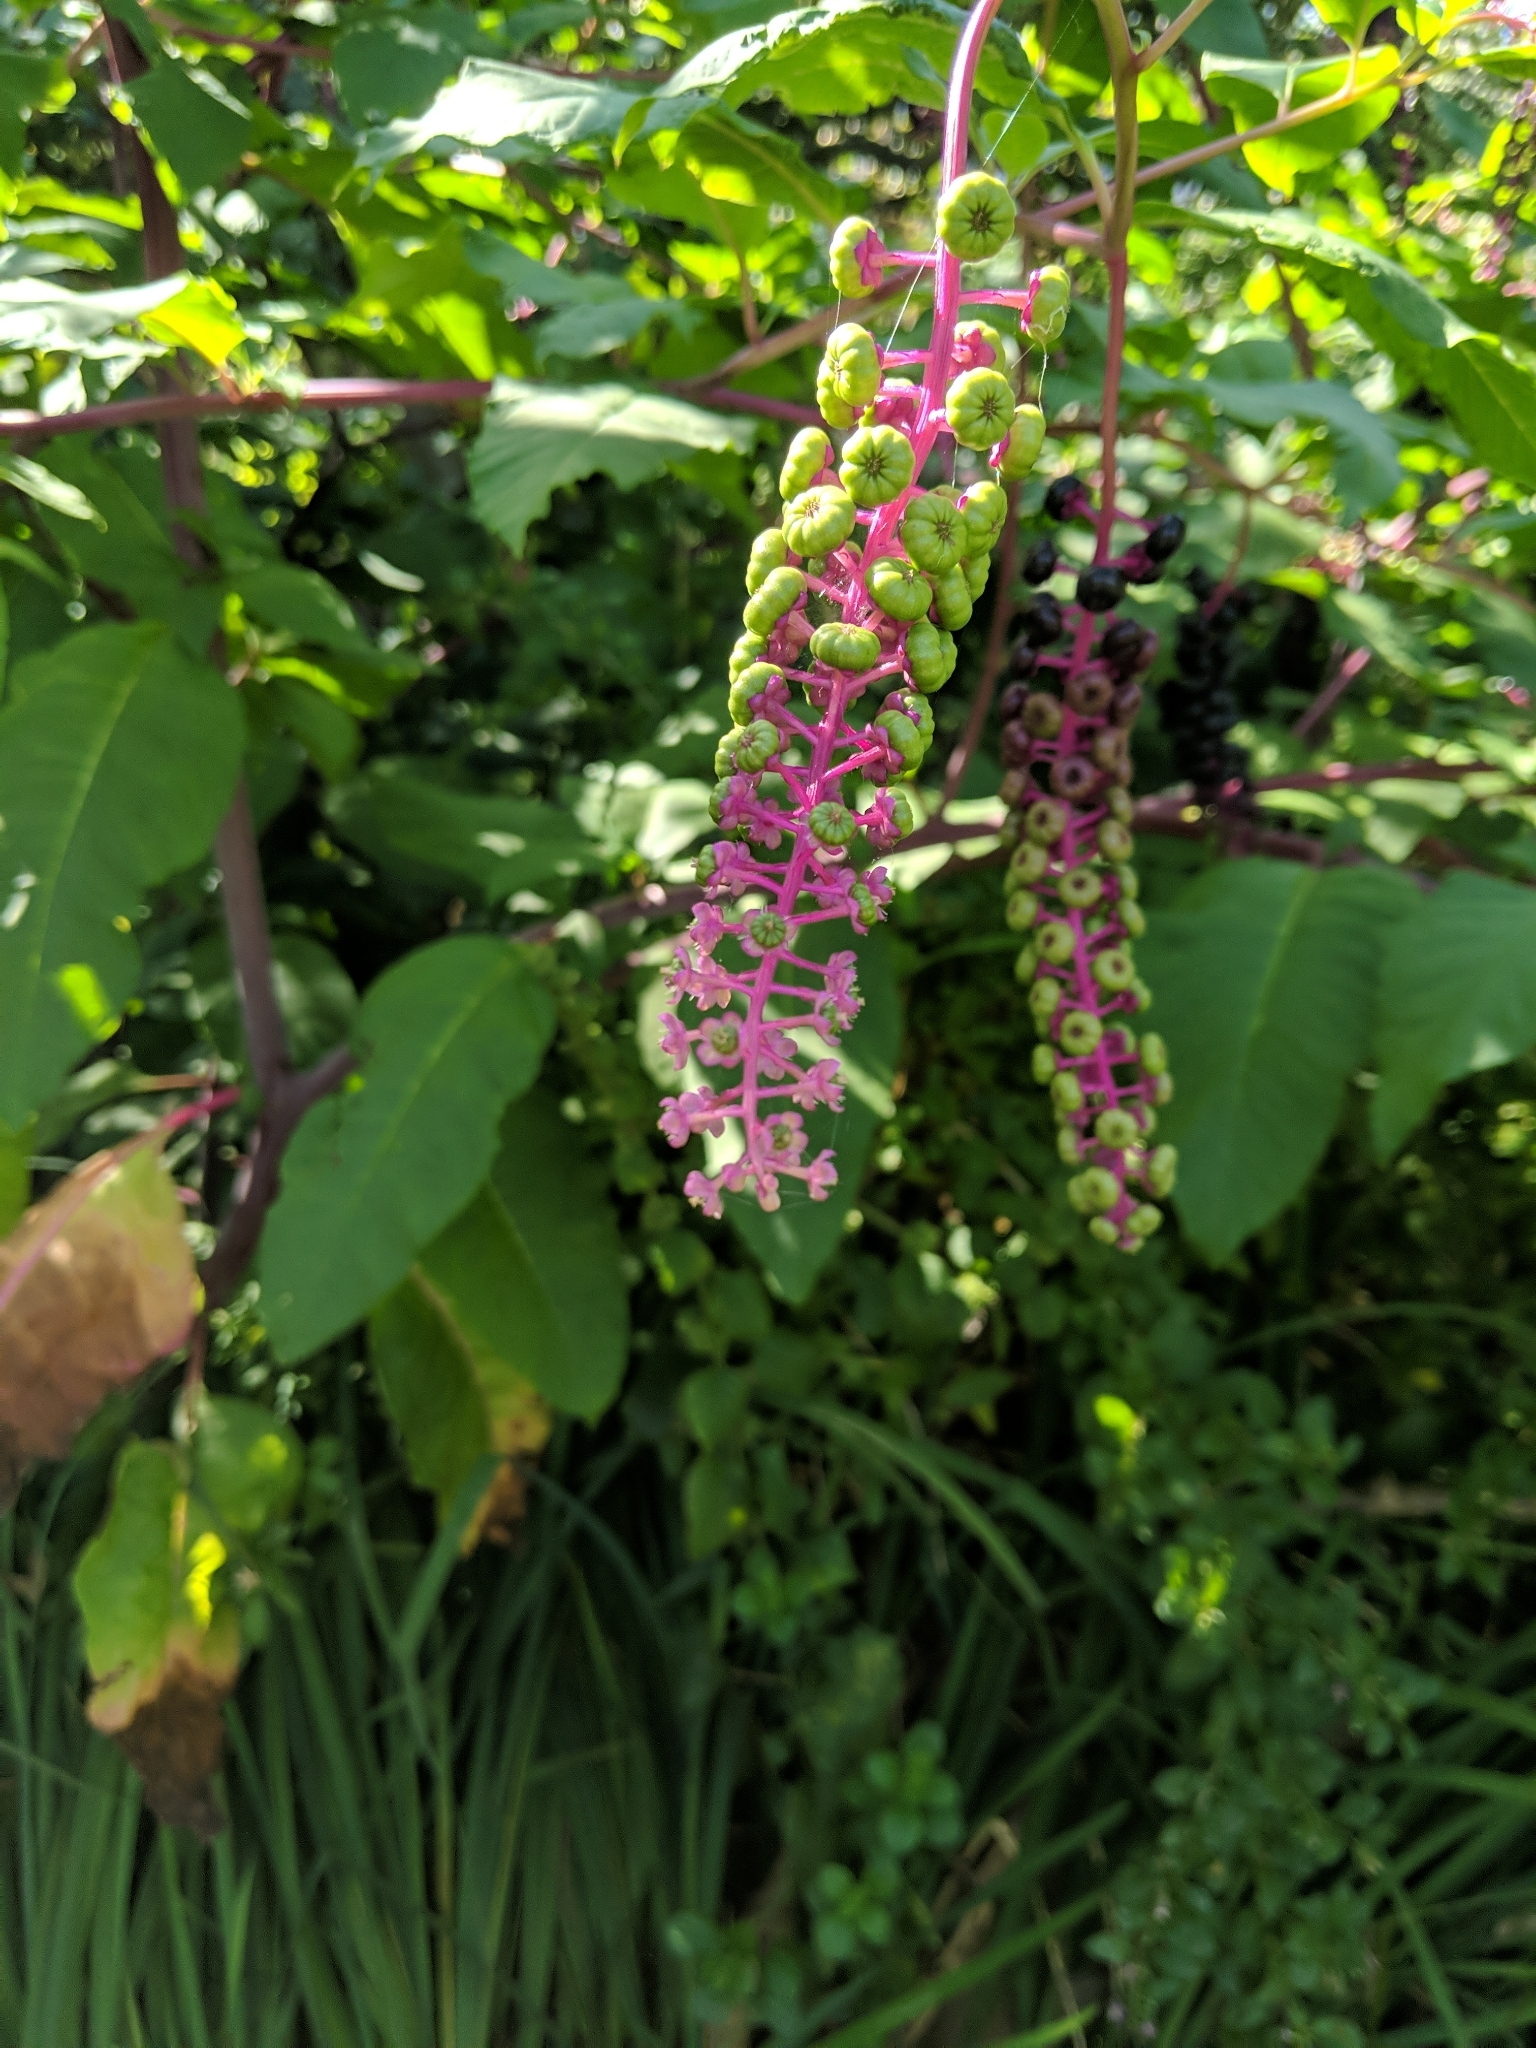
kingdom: Plantae
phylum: Tracheophyta
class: Magnoliopsida
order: Caryophyllales
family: Phytolaccaceae
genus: Phytolacca
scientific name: Phytolacca americana
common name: American pokeweed
